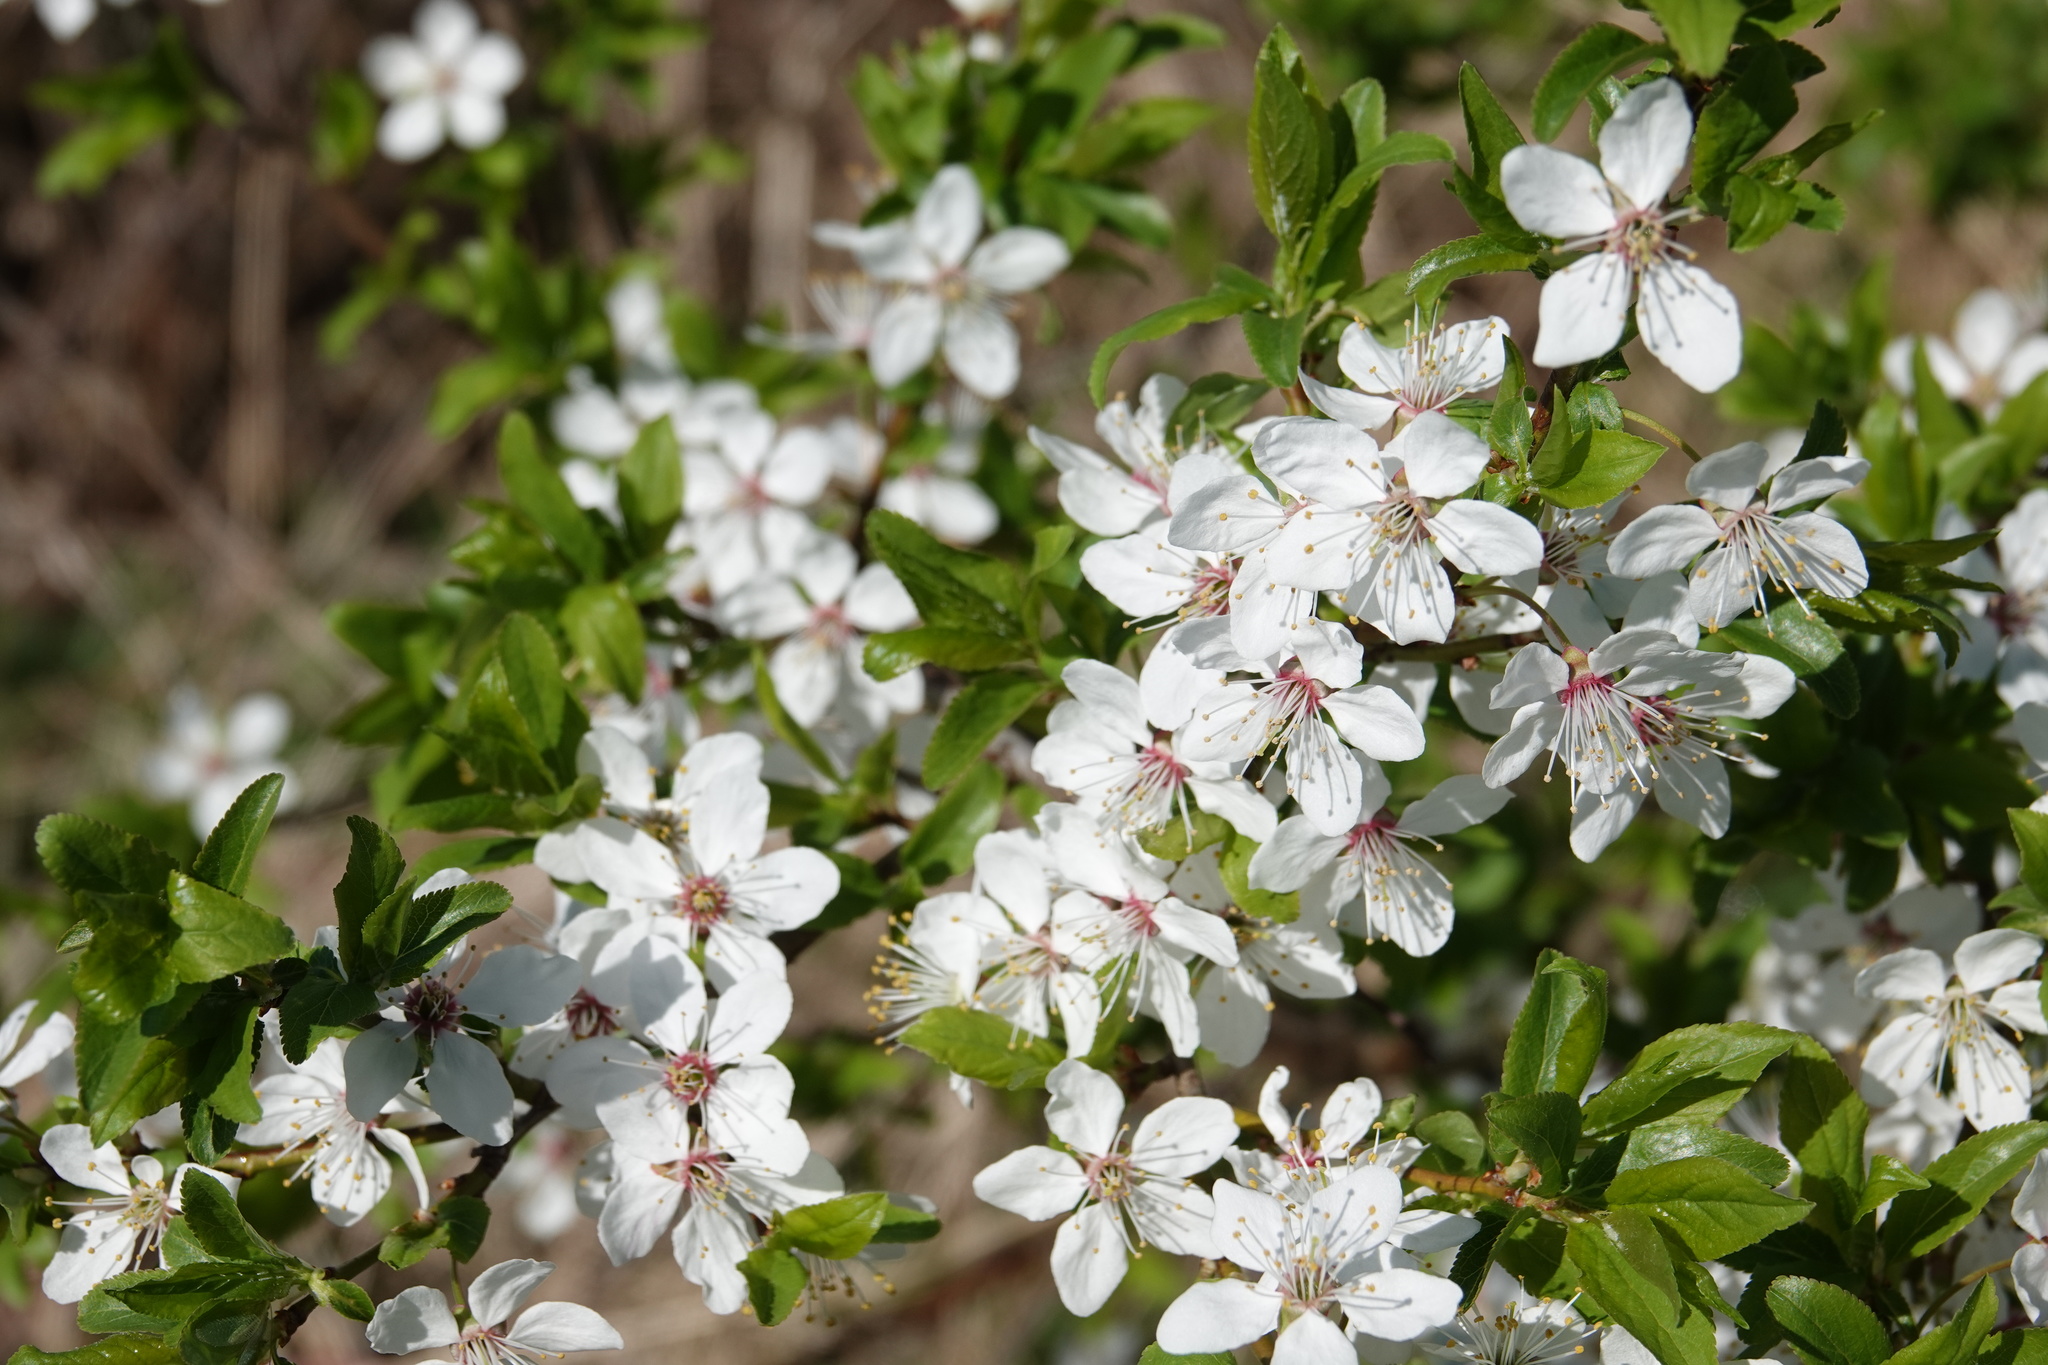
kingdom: Plantae
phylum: Tracheophyta
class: Magnoliopsida
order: Rosales
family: Rosaceae
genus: Prunus
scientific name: Prunus cerasifera
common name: Cherry plum
